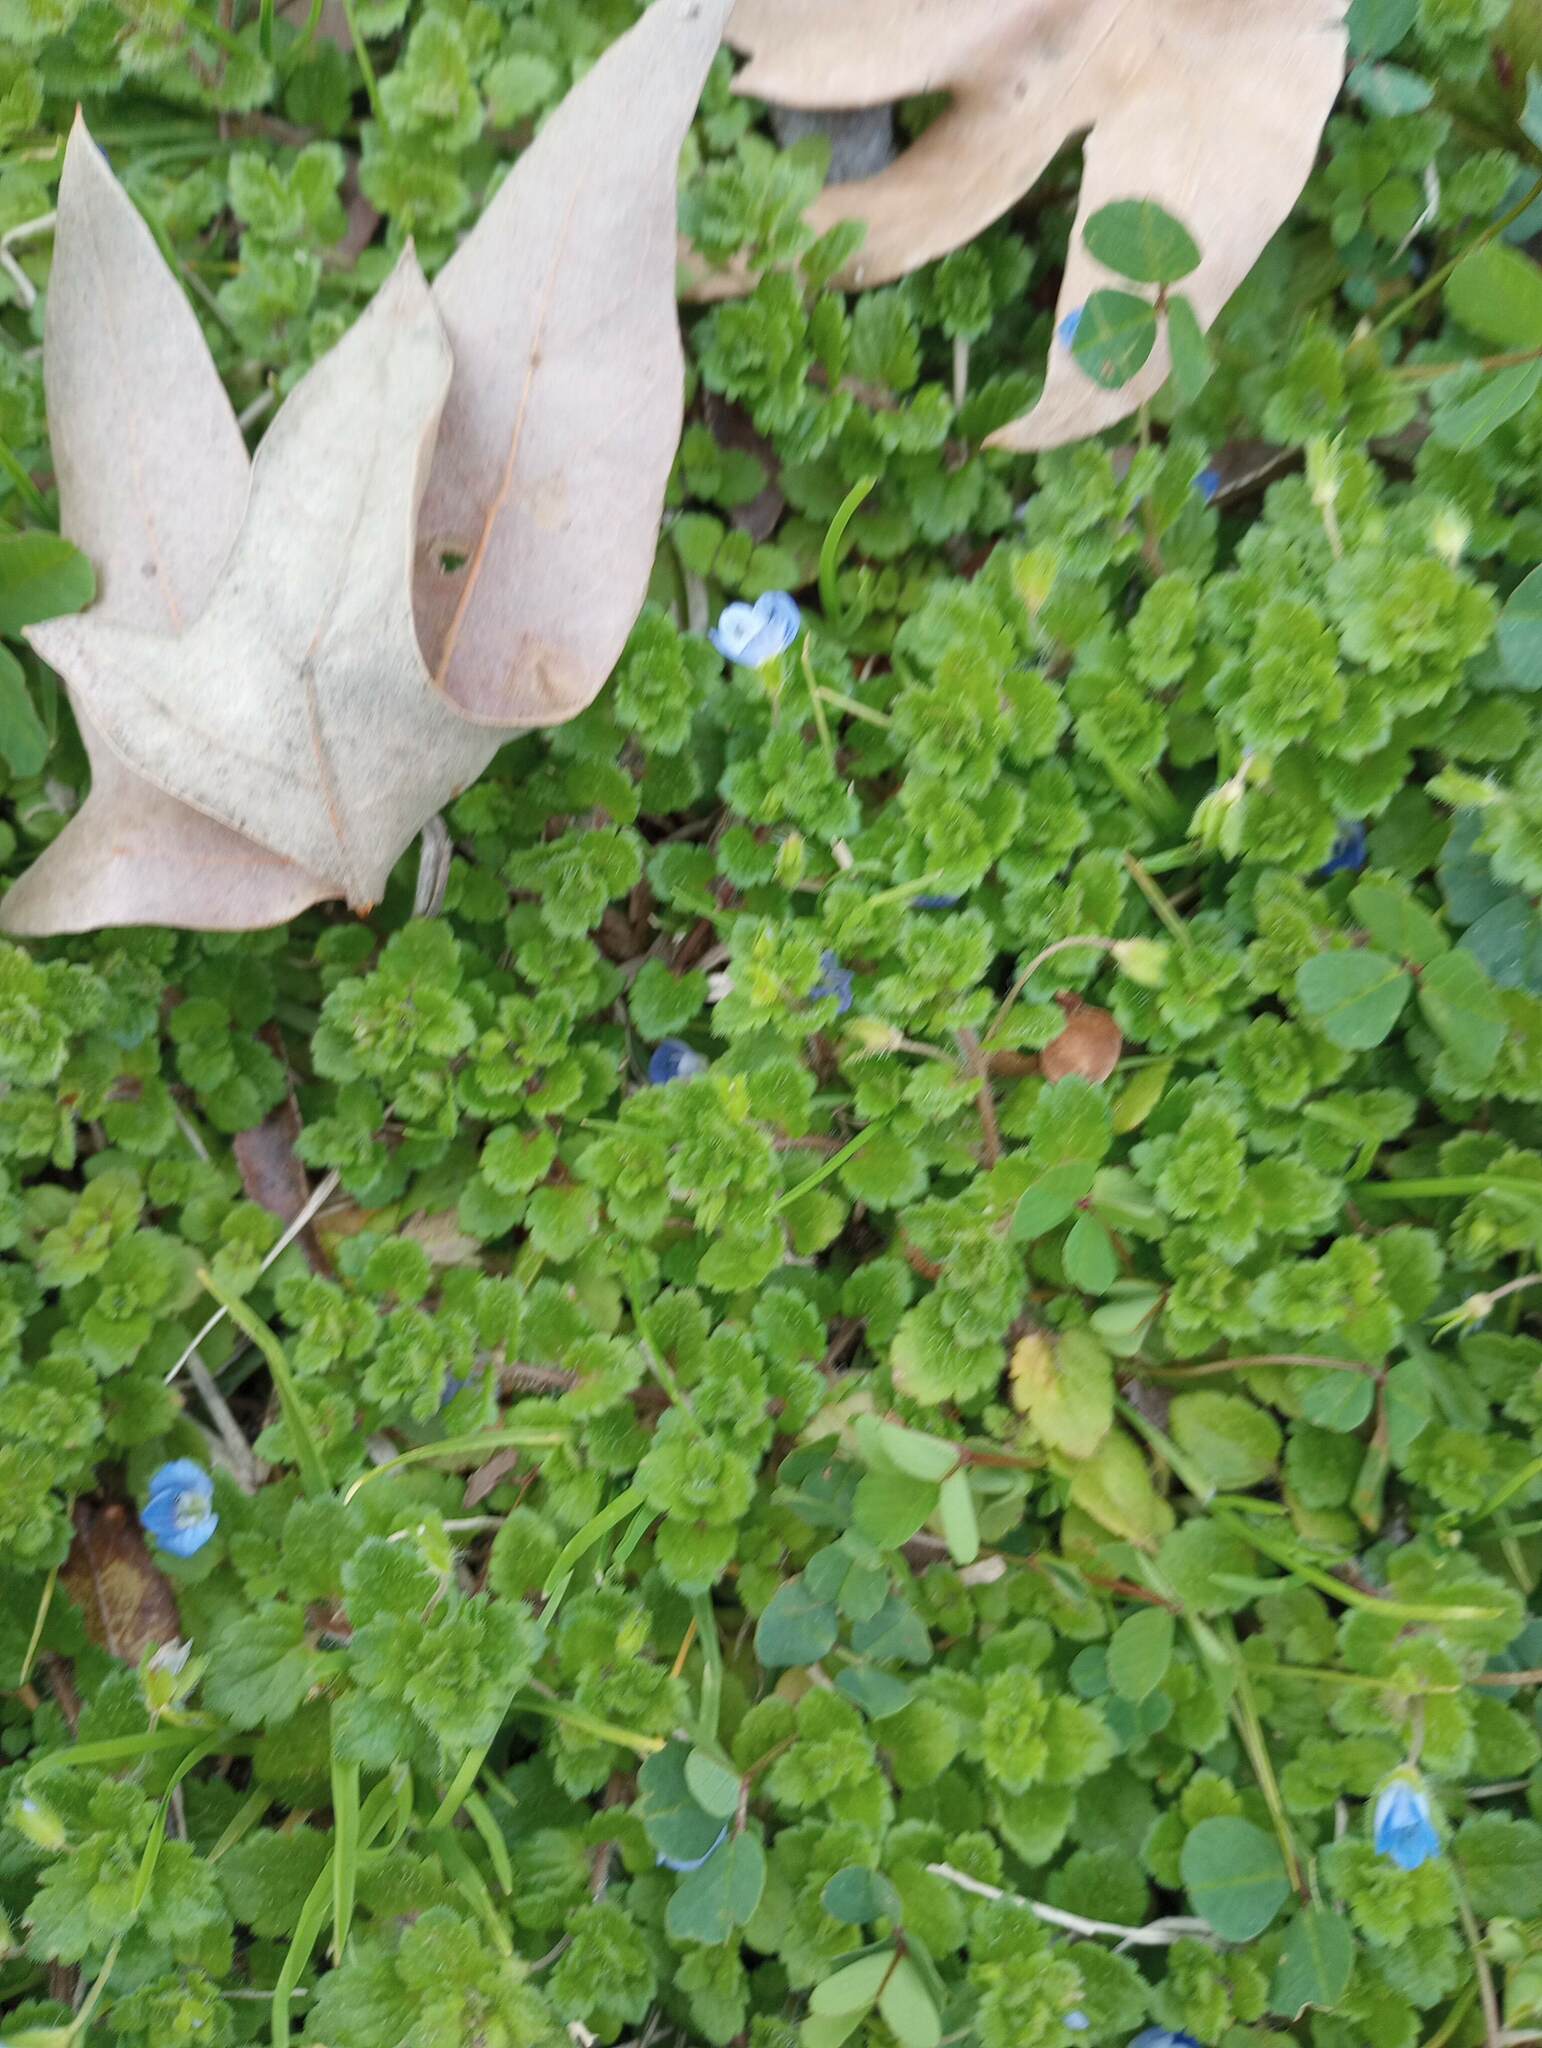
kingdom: Plantae
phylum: Tracheophyta
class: Magnoliopsida
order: Lamiales
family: Plantaginaceae
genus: Veronica
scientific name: Veronica persica
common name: Common field-speedwell
